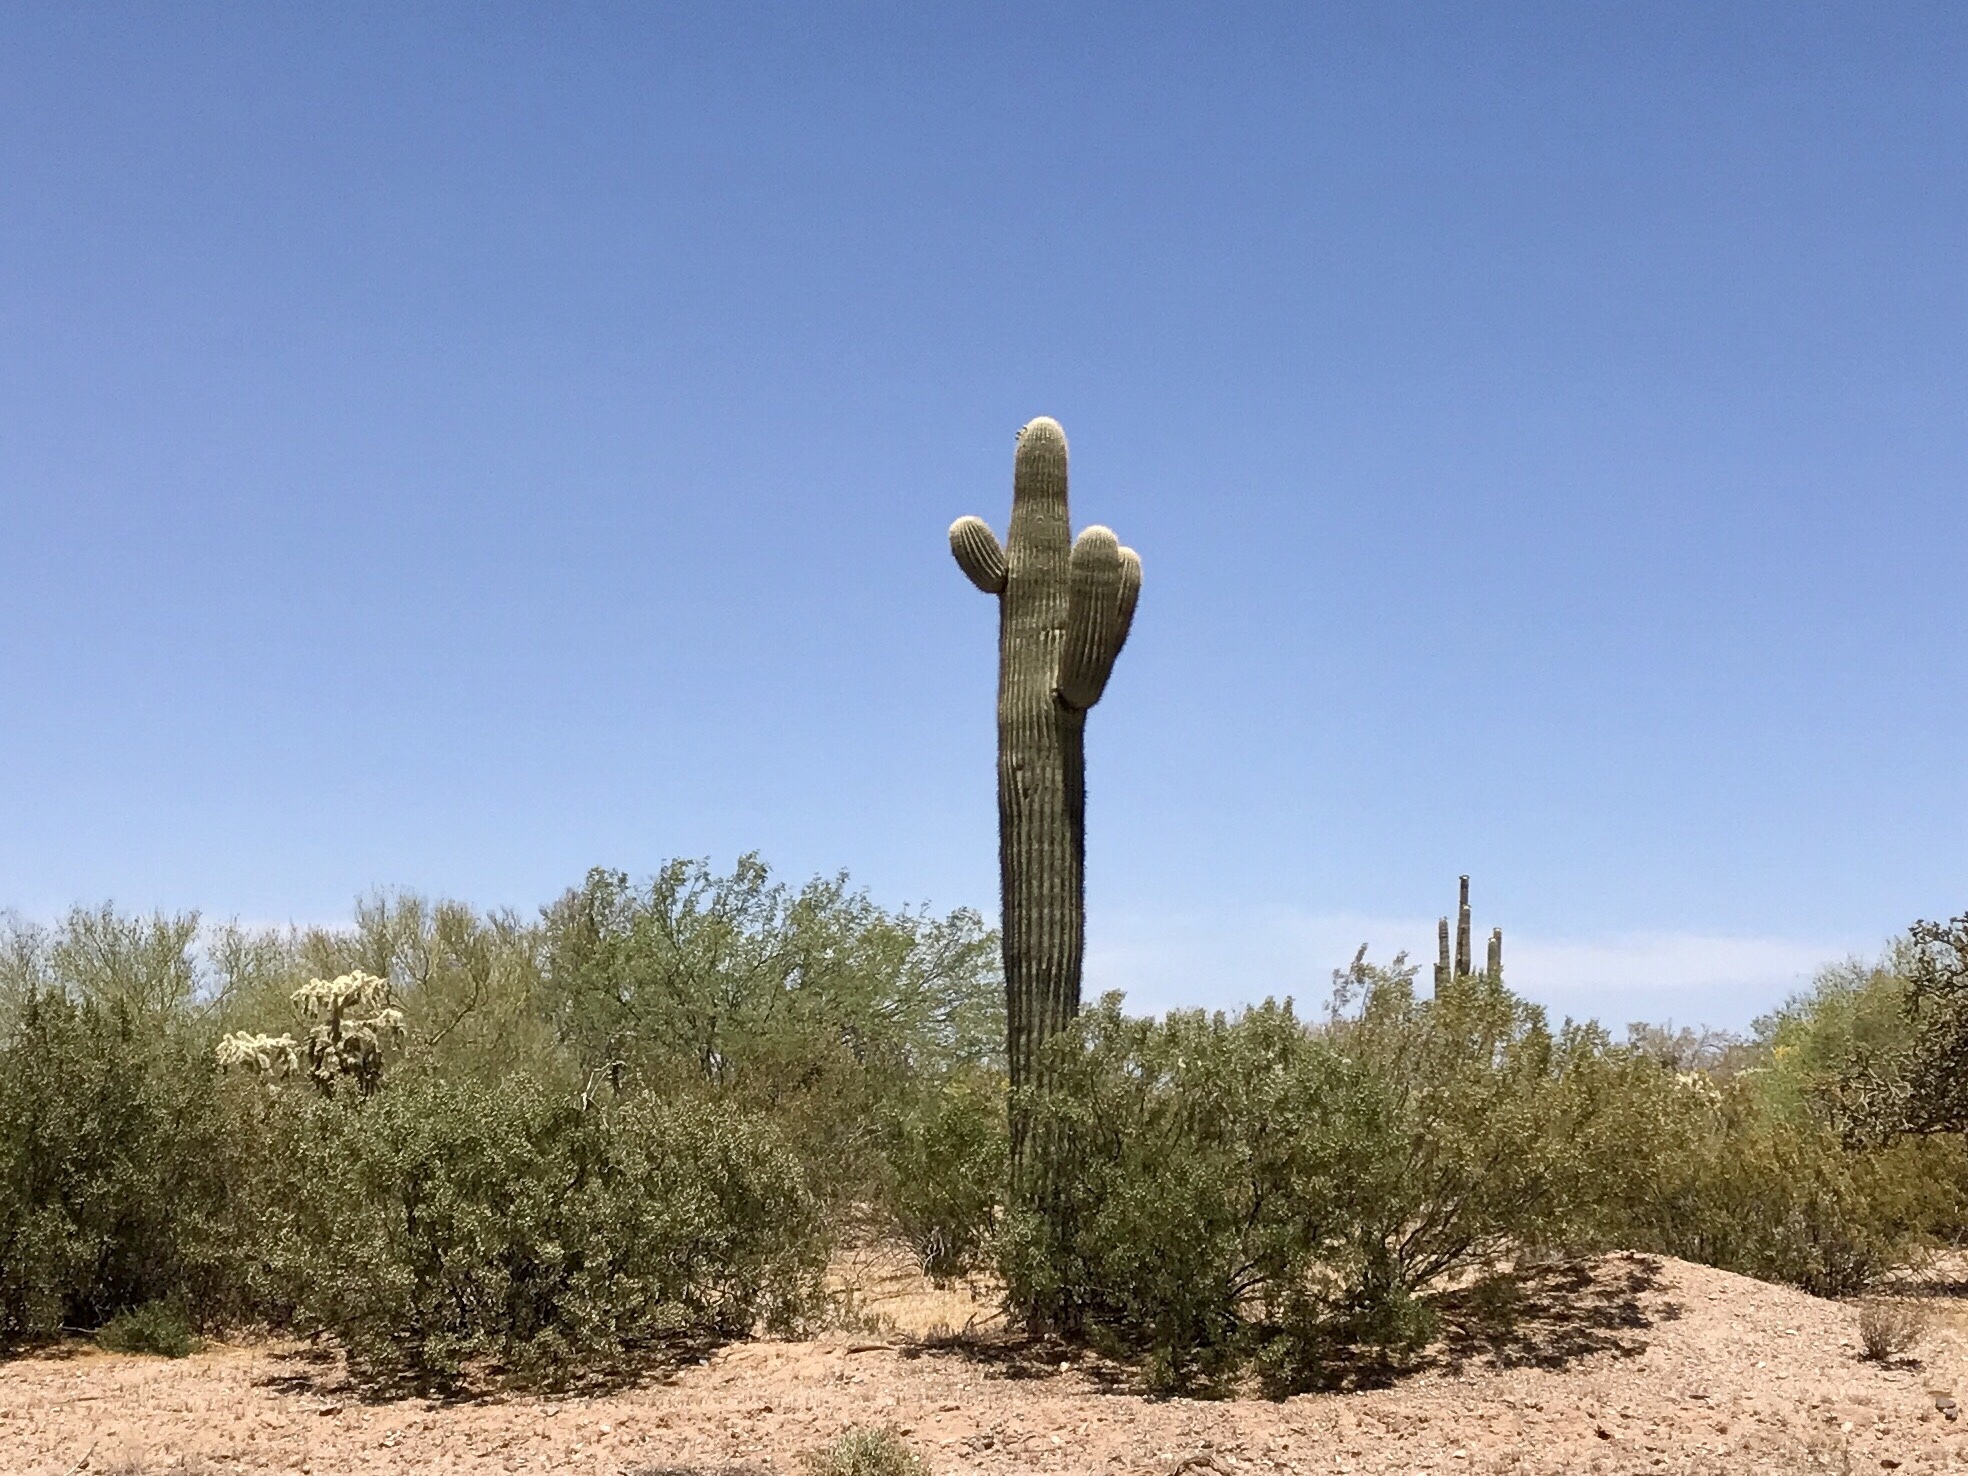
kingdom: Plantae
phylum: Tracheophyta
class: Magnoliopsida
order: Caryophyllales
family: Cactaceae
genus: Carnegiea
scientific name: Carnegiea gigantea
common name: Saguaro
